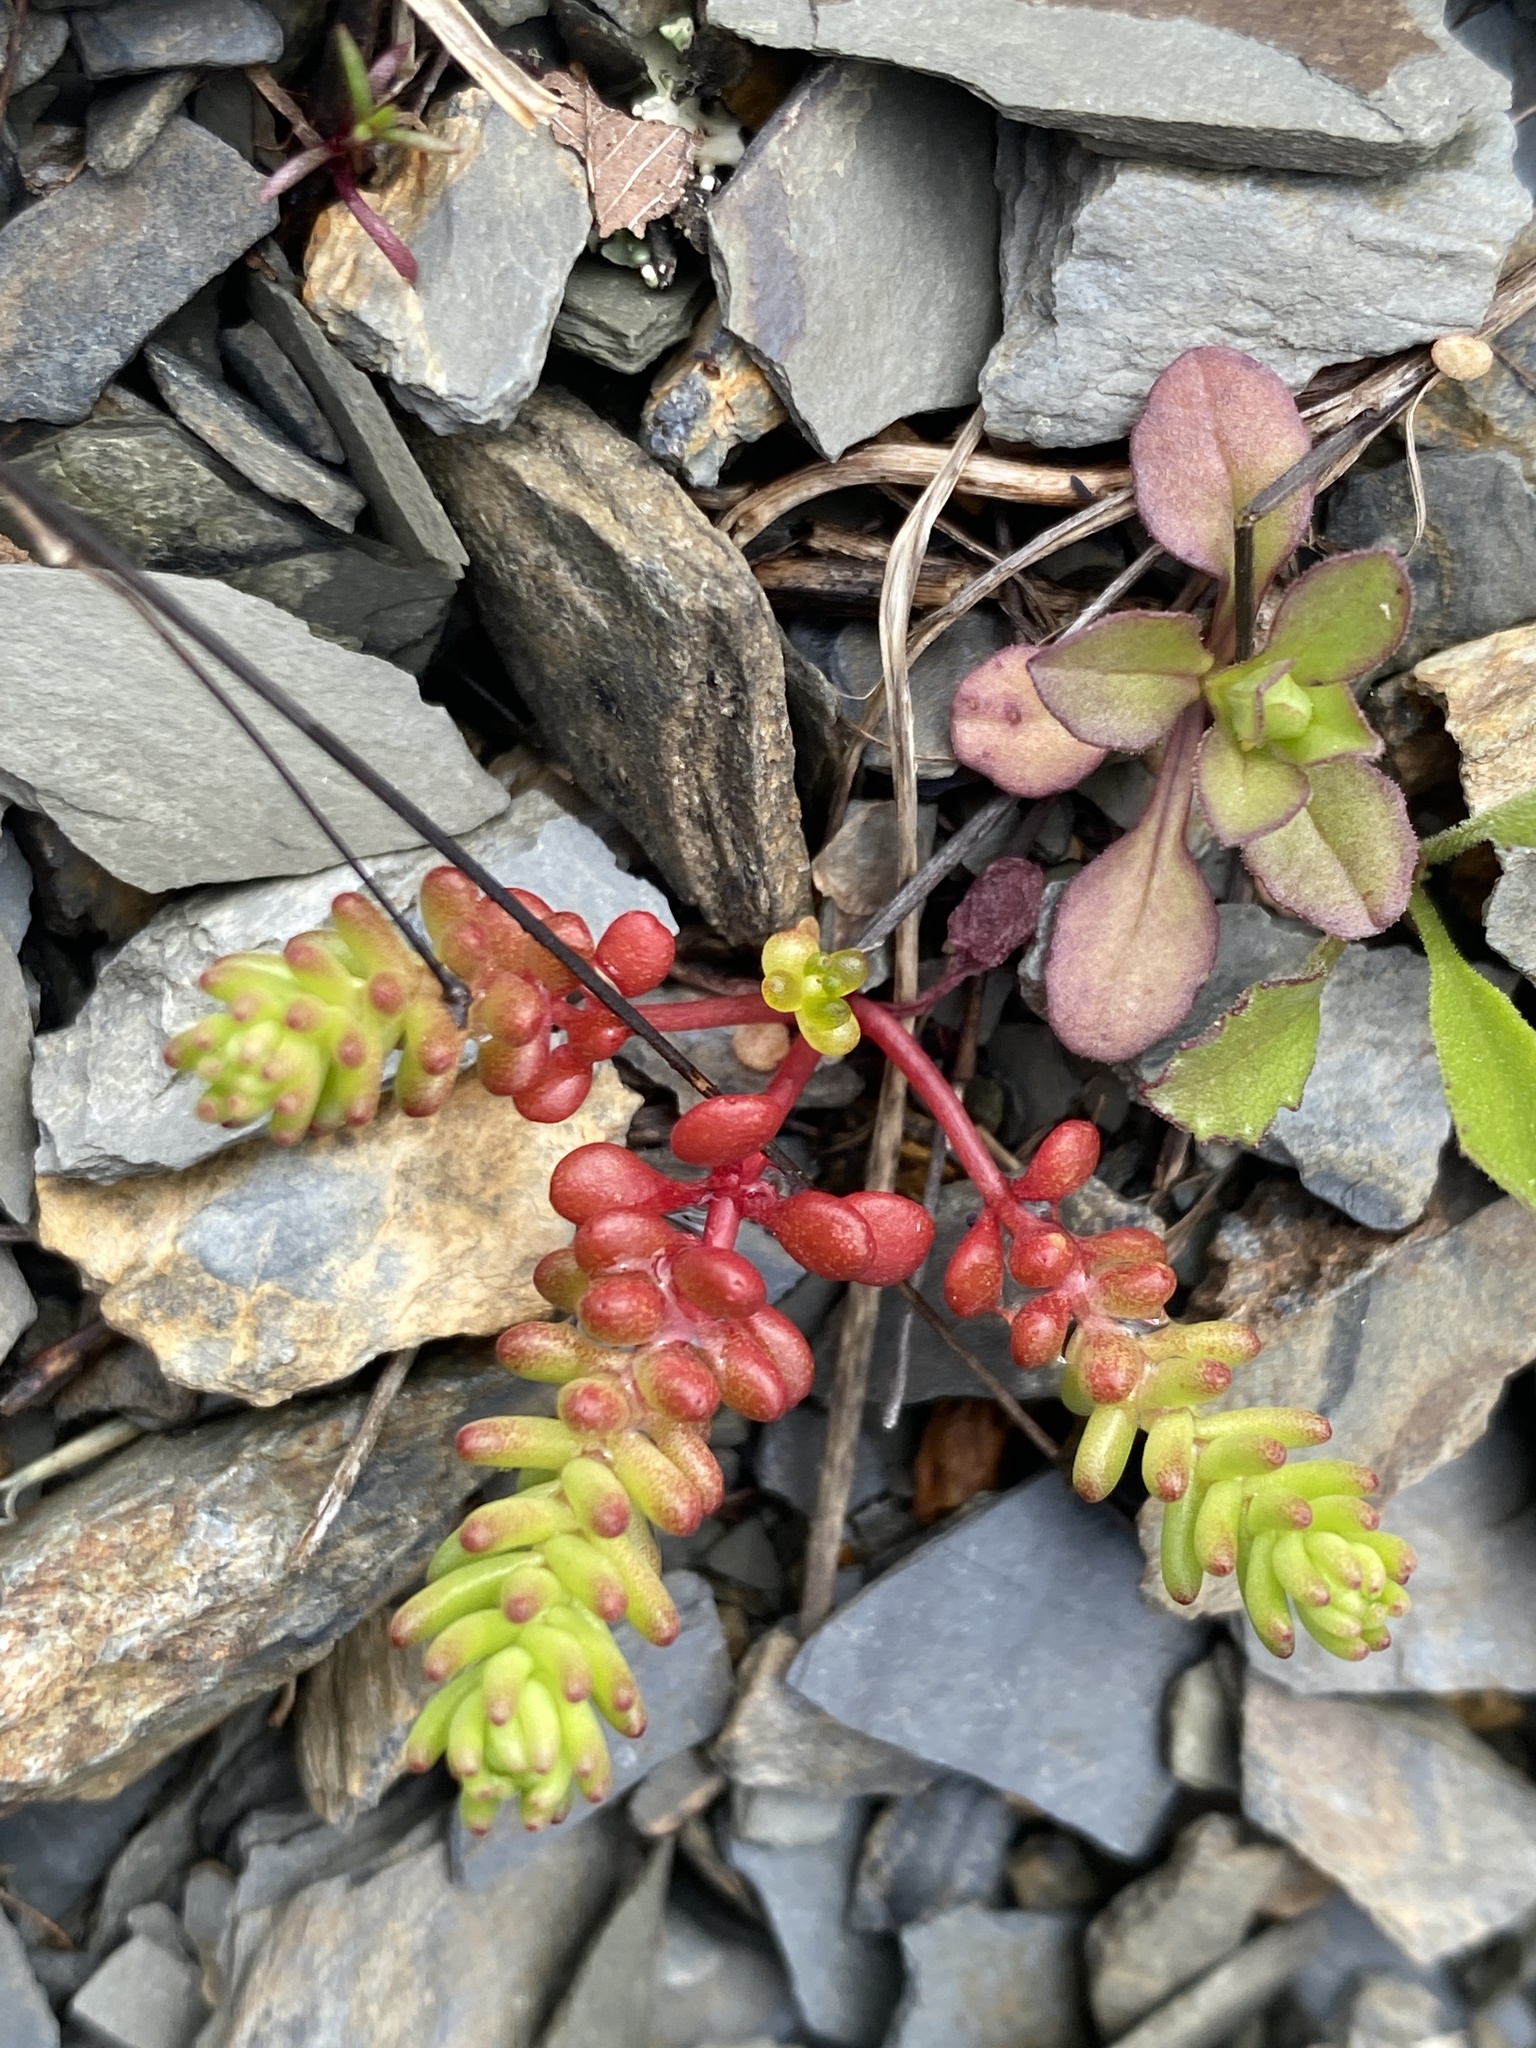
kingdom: Plantae
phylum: Tracheophyta
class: Magnoliopsida
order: Saxifragales
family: Crassulaceae
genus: Sedum
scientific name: Sedum pulchellum
